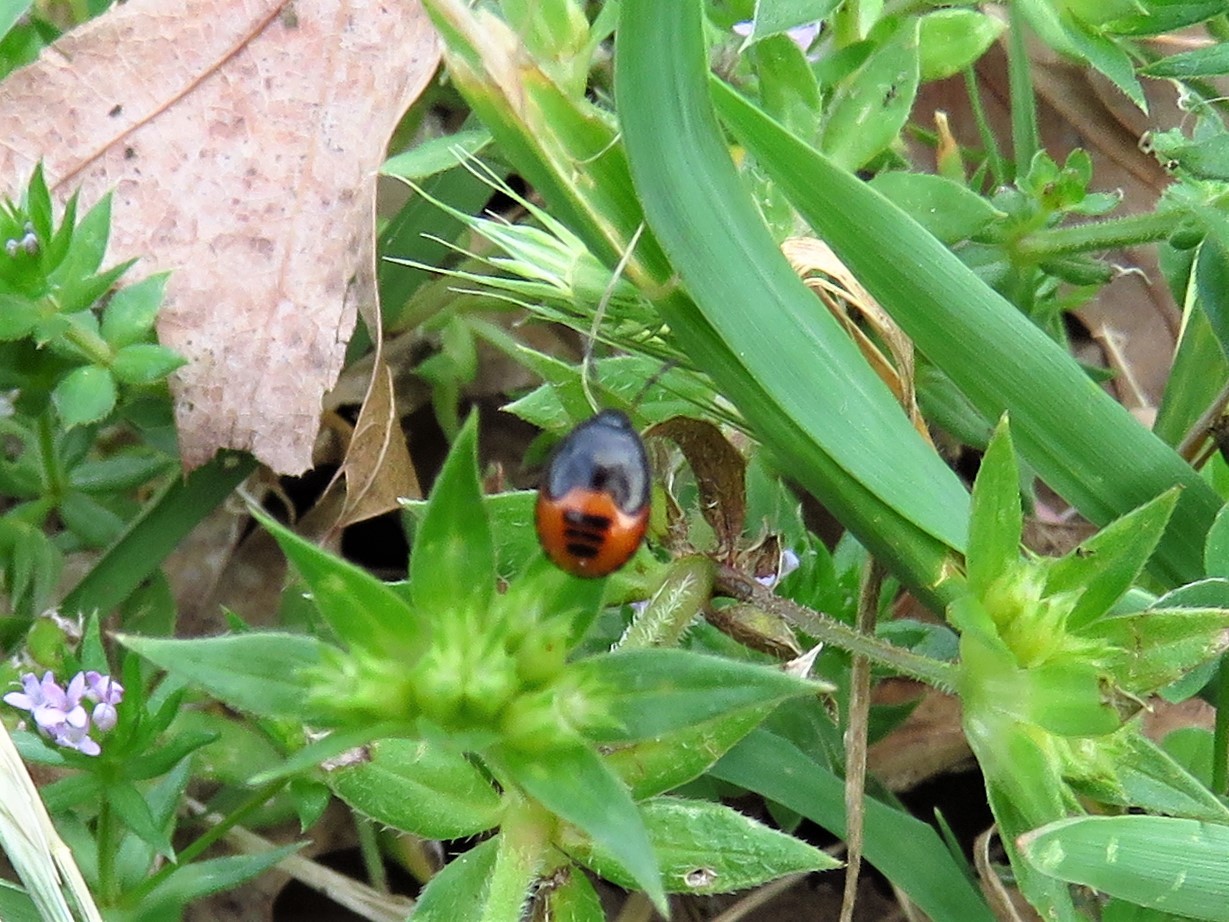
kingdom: Animalia
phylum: Arthropoda
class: Insecta
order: Hemiptera
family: Cydnidae
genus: Sehirus
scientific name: Sehirus cinctus
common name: White-margined burrower bug
